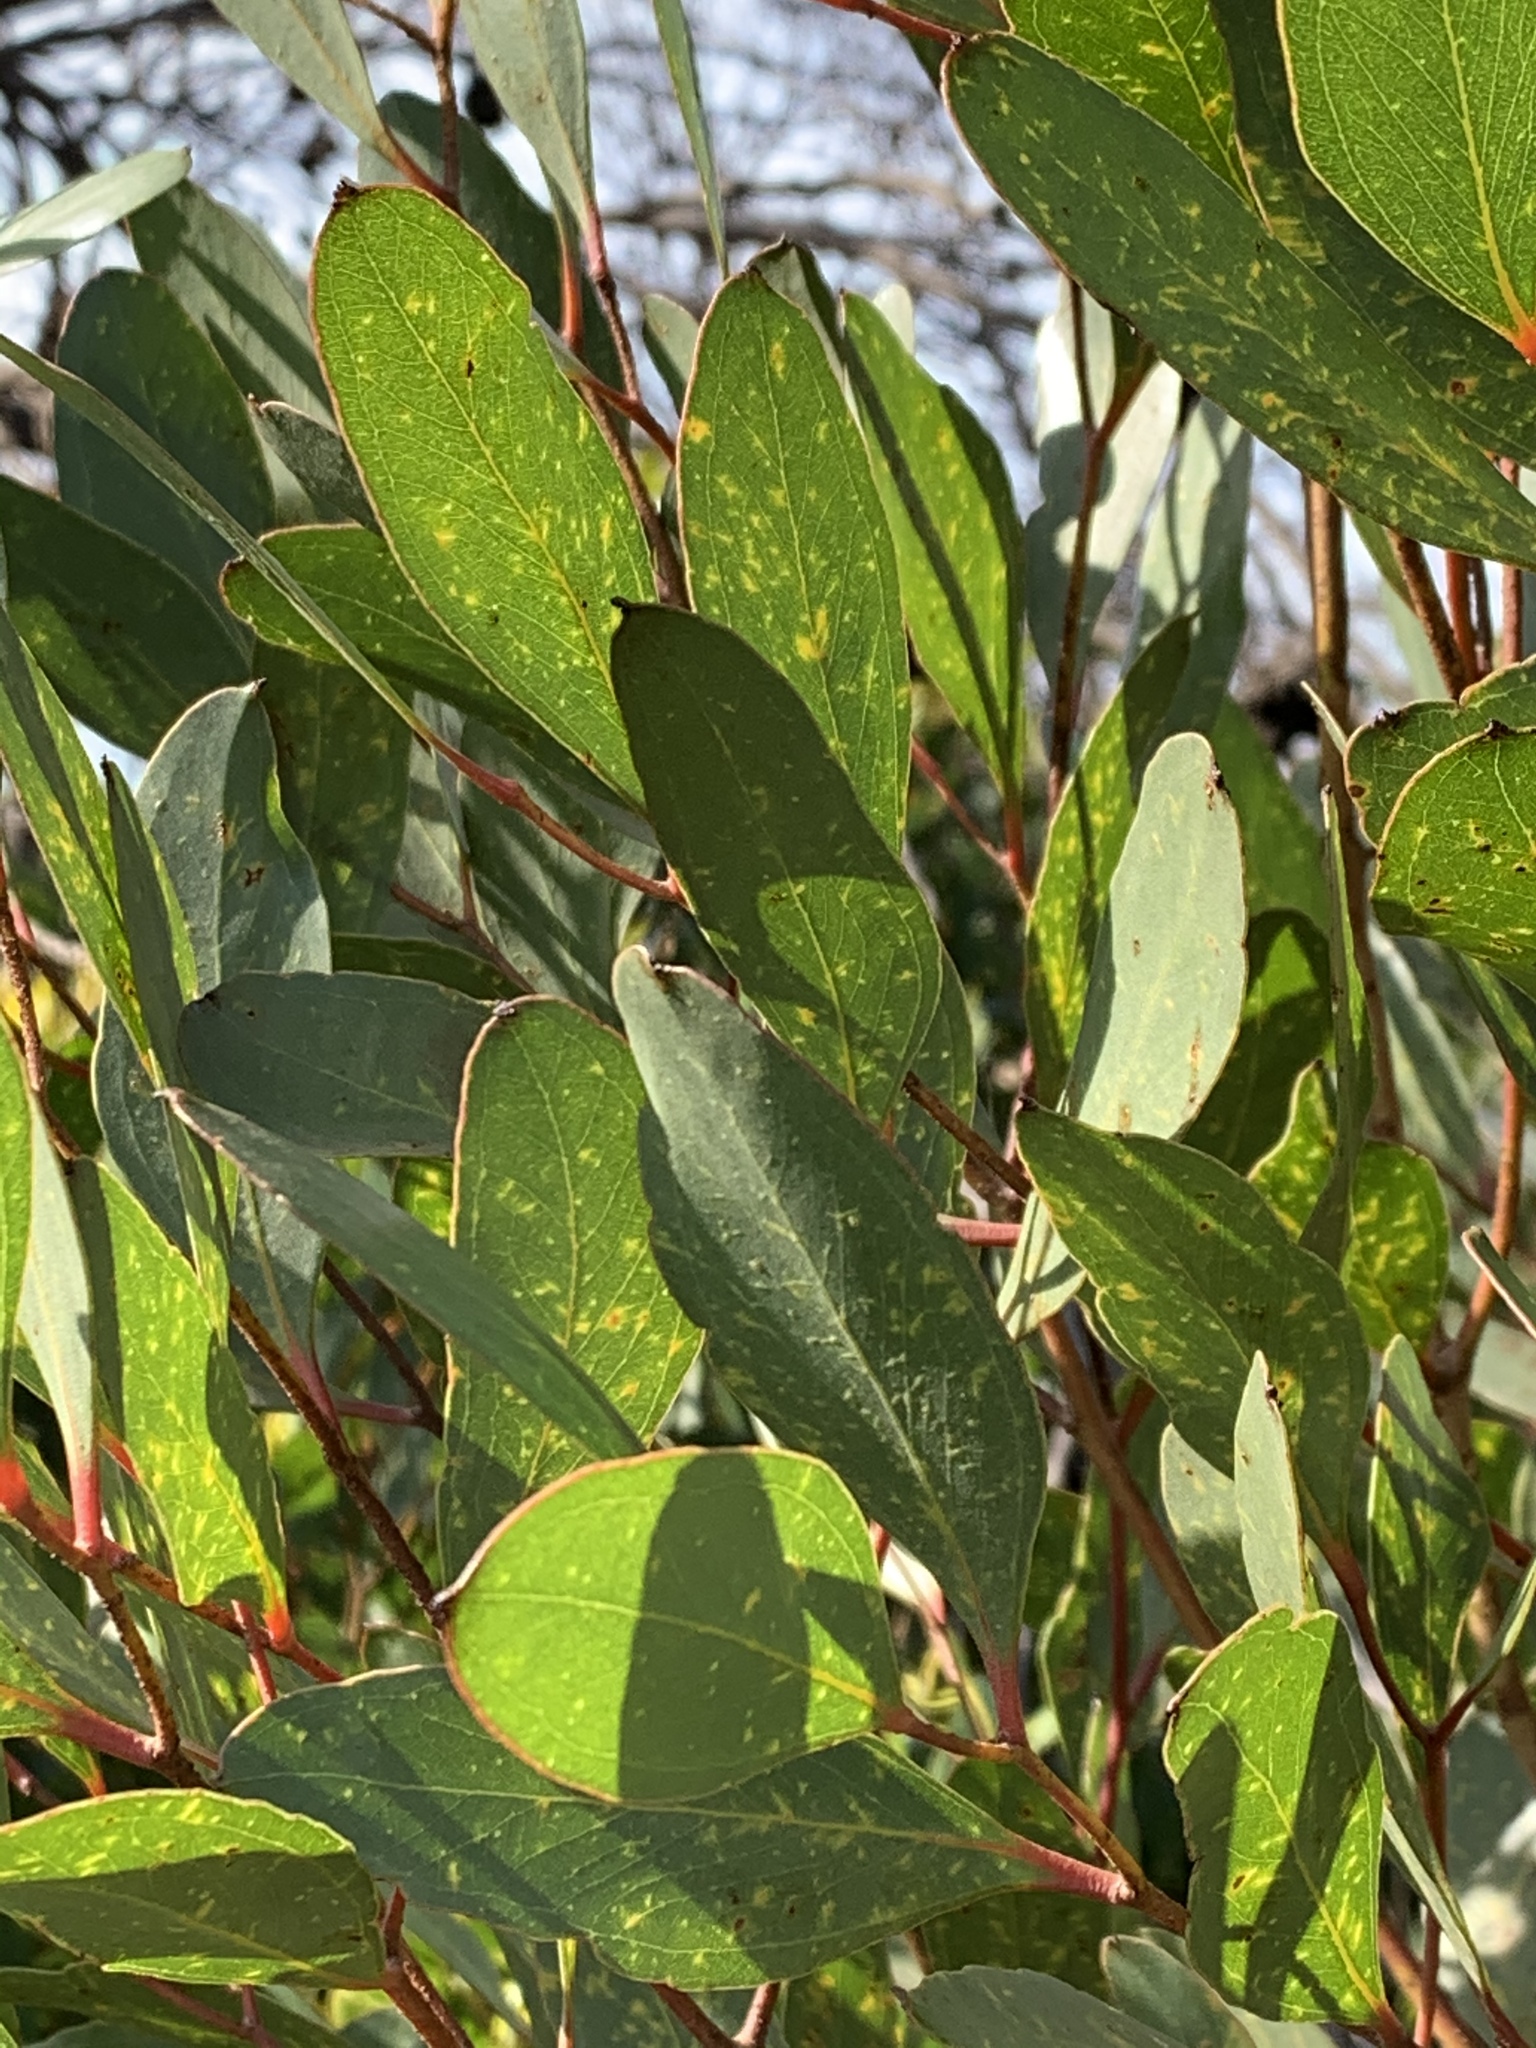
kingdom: Plantae
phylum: Tracheophyta
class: Magnoliopsida
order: Myrtales
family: Myrtaceae
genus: Eucalyptus
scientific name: Eucalyptus conferruminata
